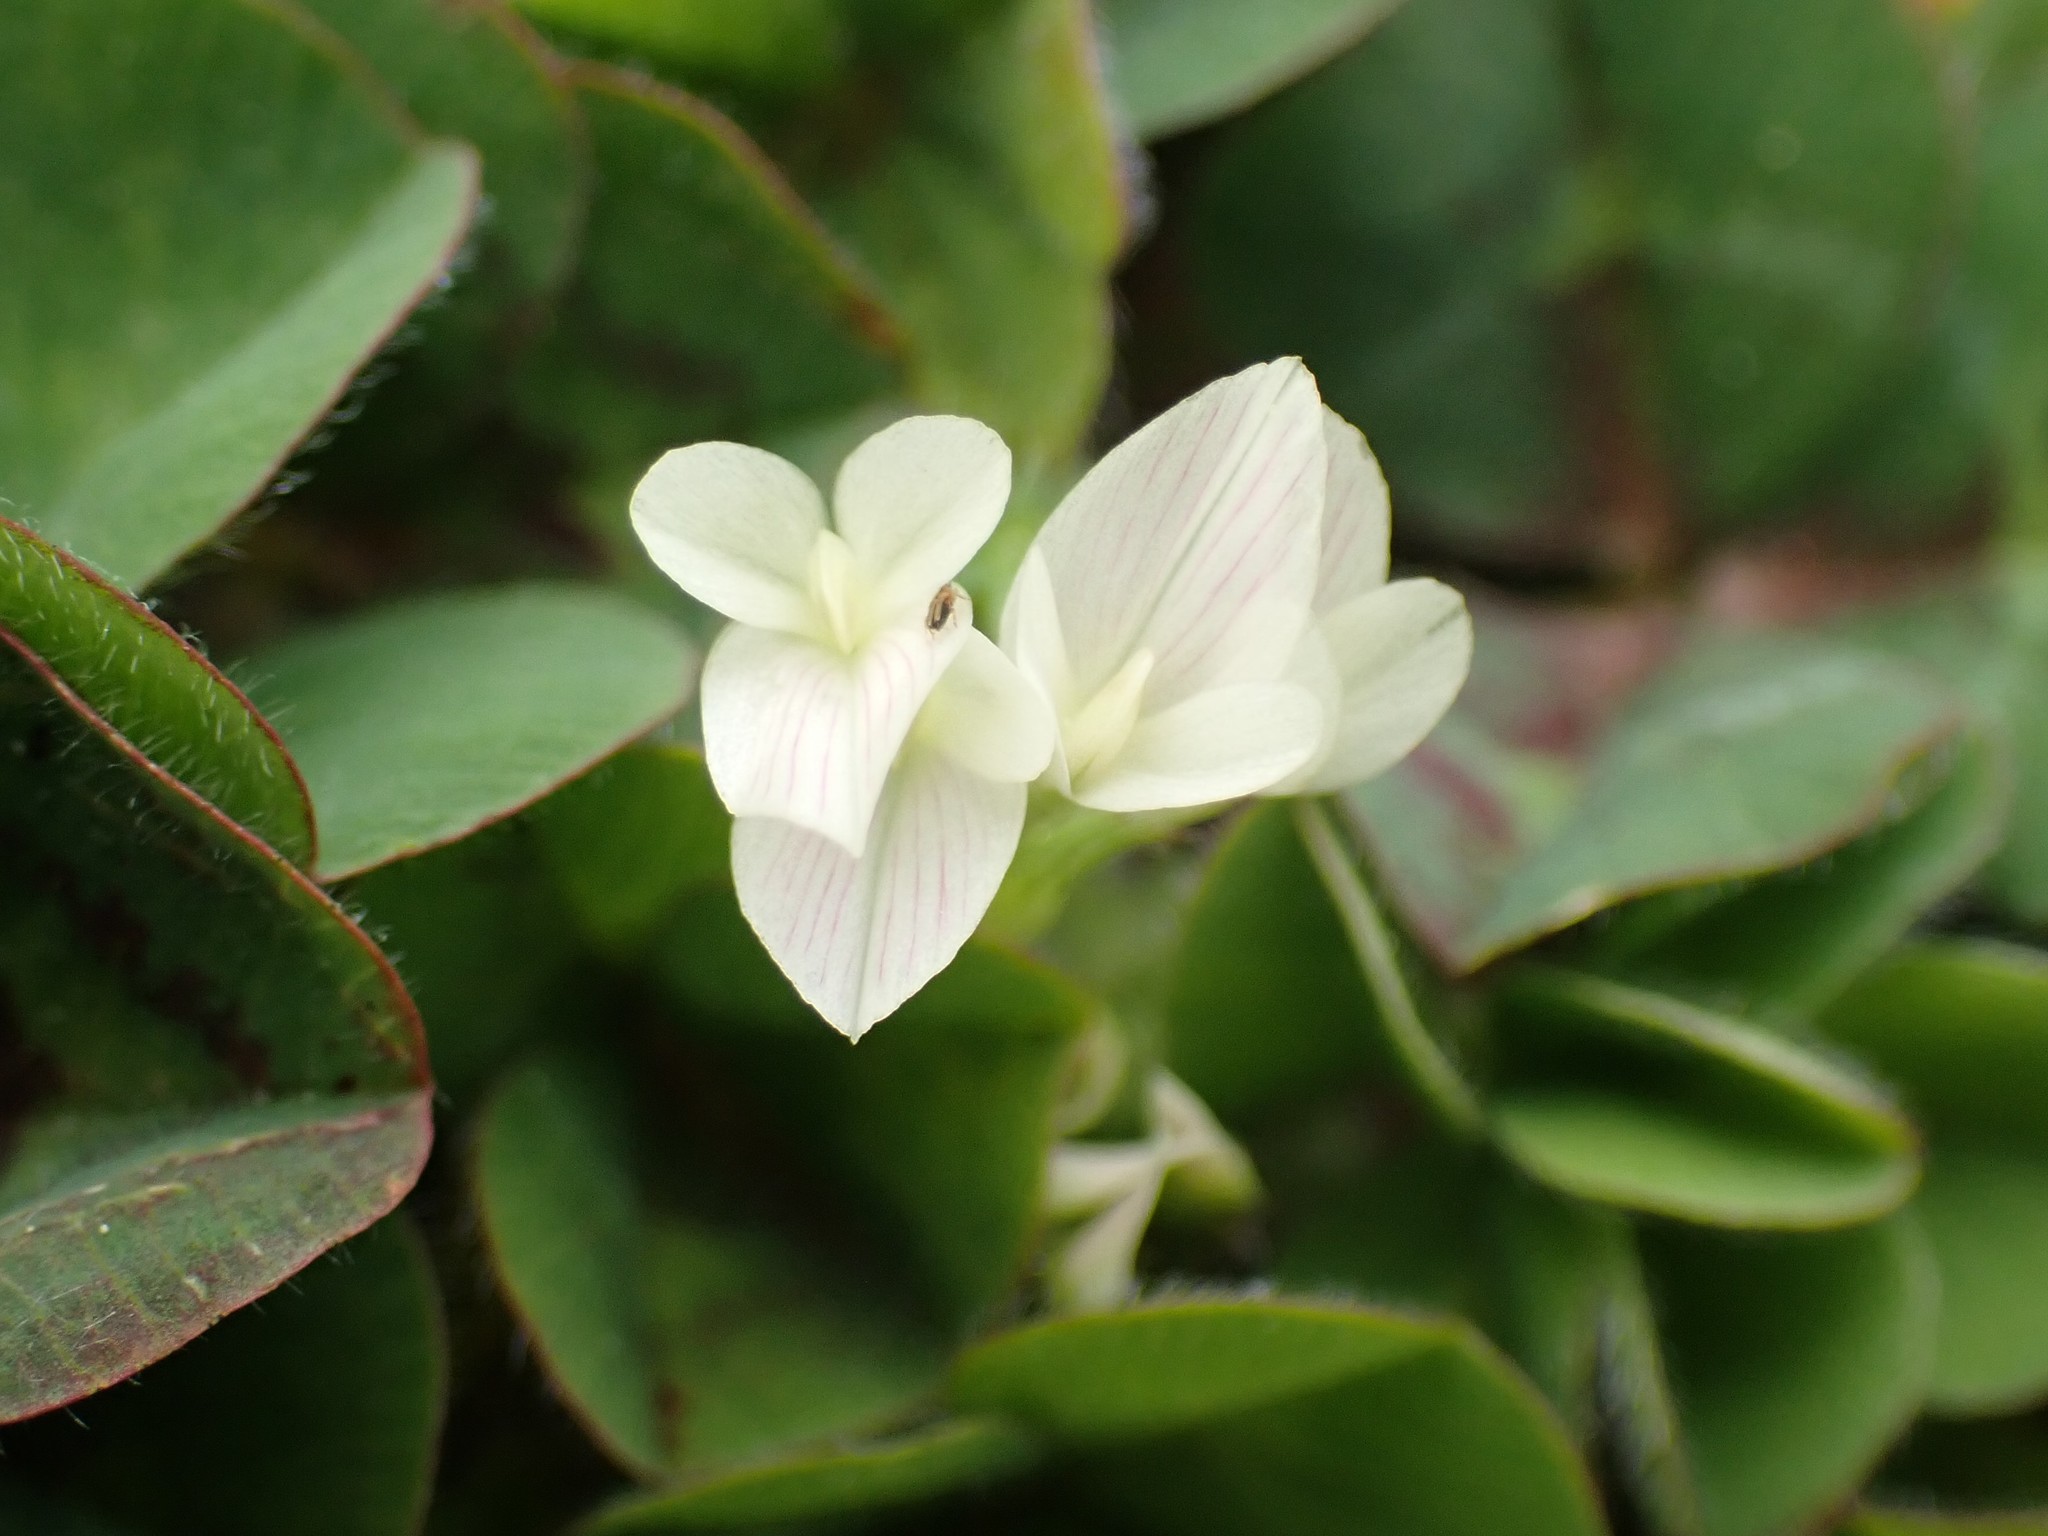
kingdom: Plantae
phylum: Tracheophyta
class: Magnoliopsida
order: Fabales
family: Fabaceae
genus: Trifolium
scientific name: Trifolium subterraneum
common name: Subterranean clover
